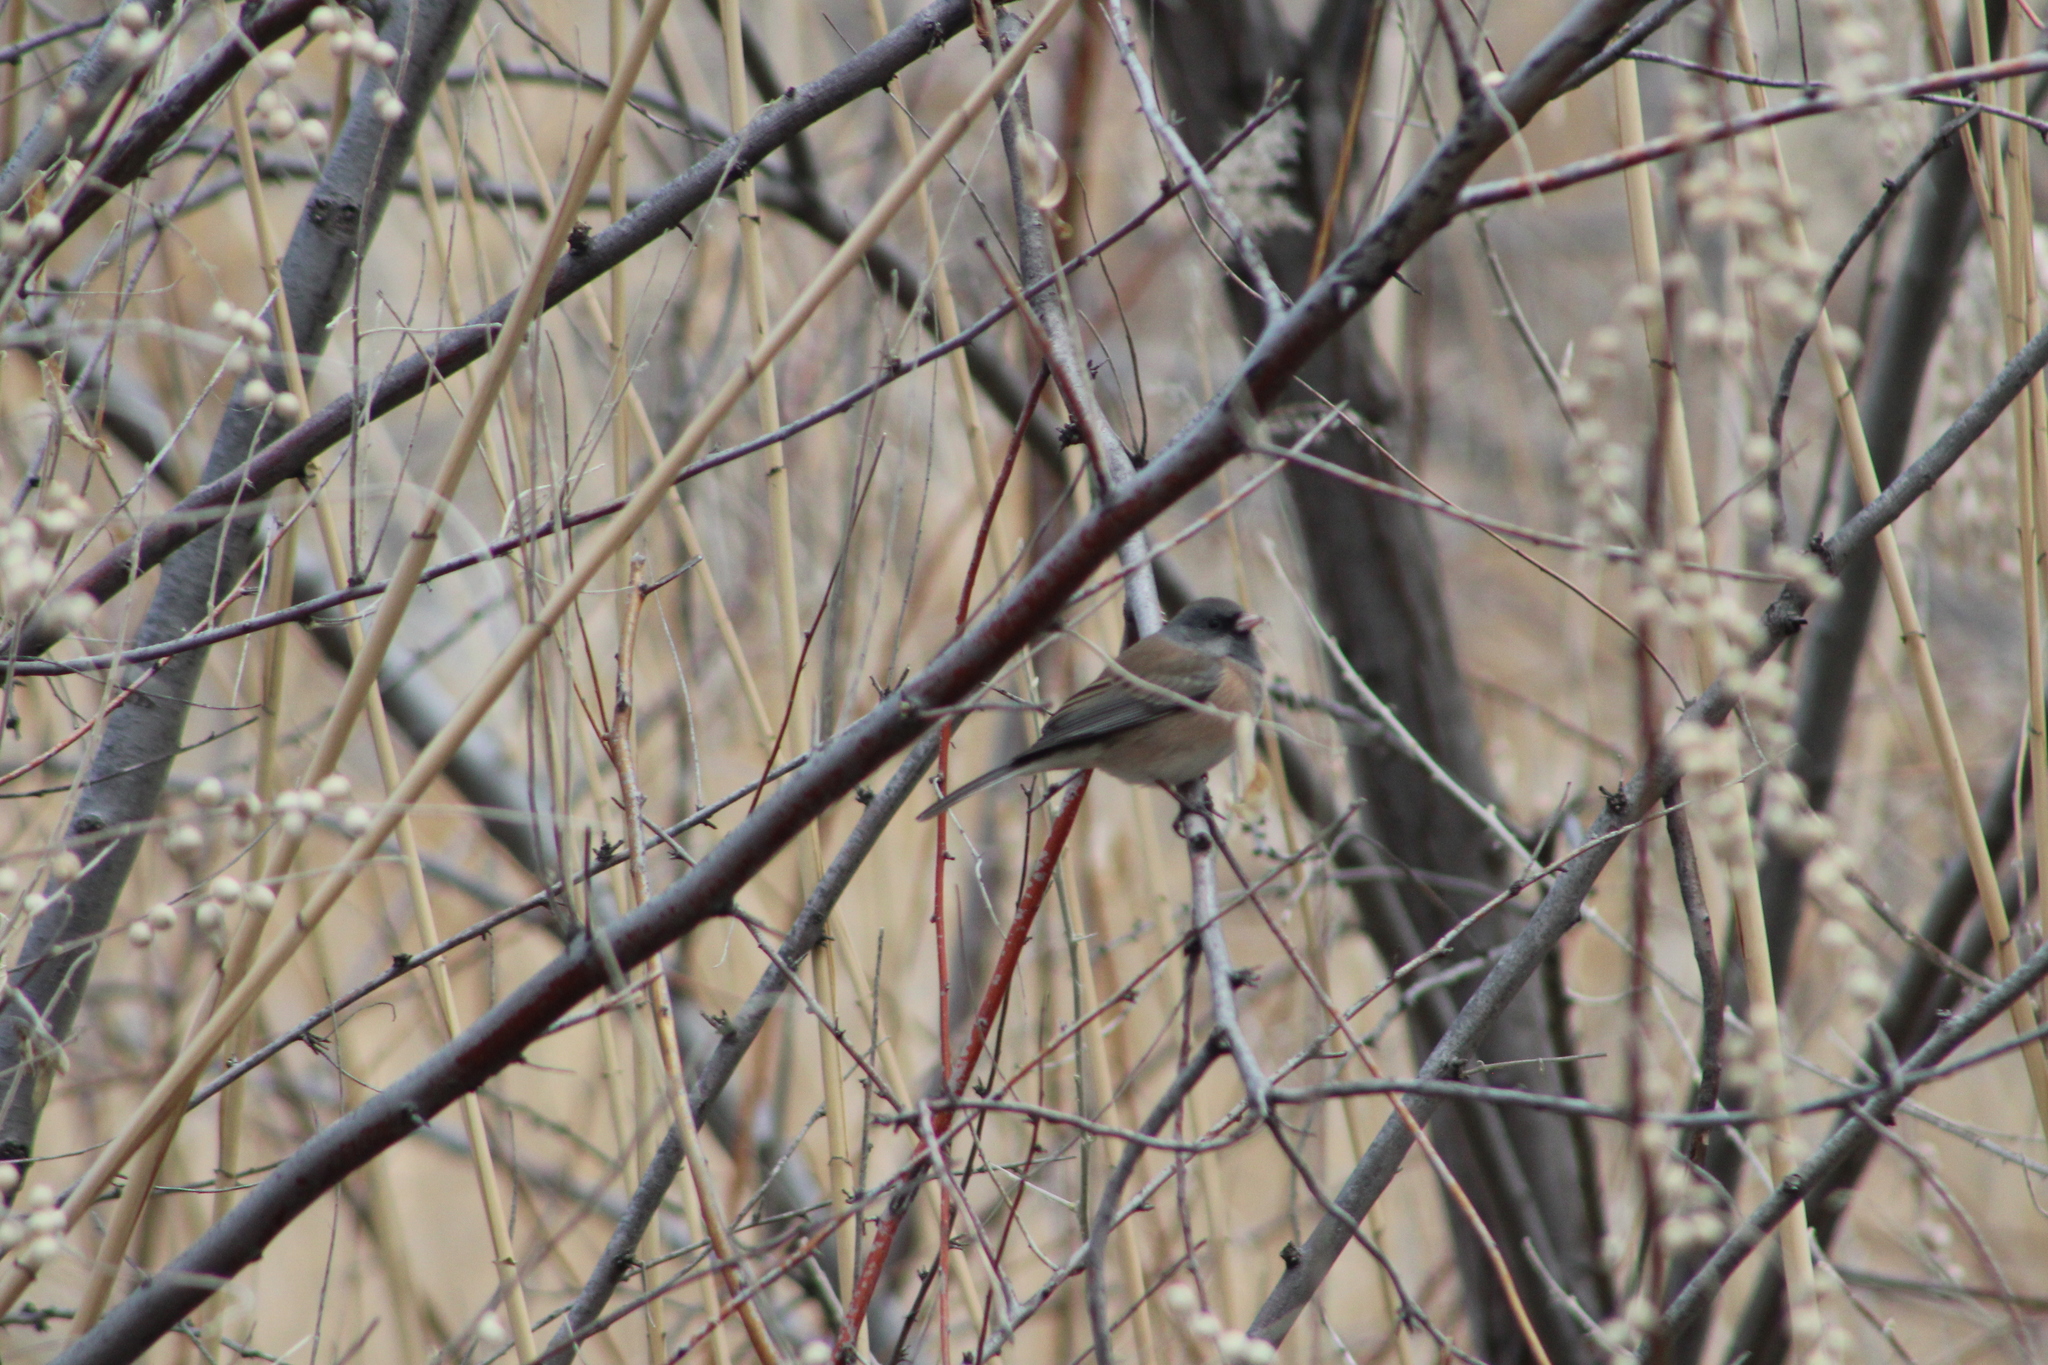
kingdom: Animalia
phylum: Chordata
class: Aves
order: Passeriformes
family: Passerellidae
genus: Junco
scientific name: Junco hyemalis
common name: Dark-eyed junco
